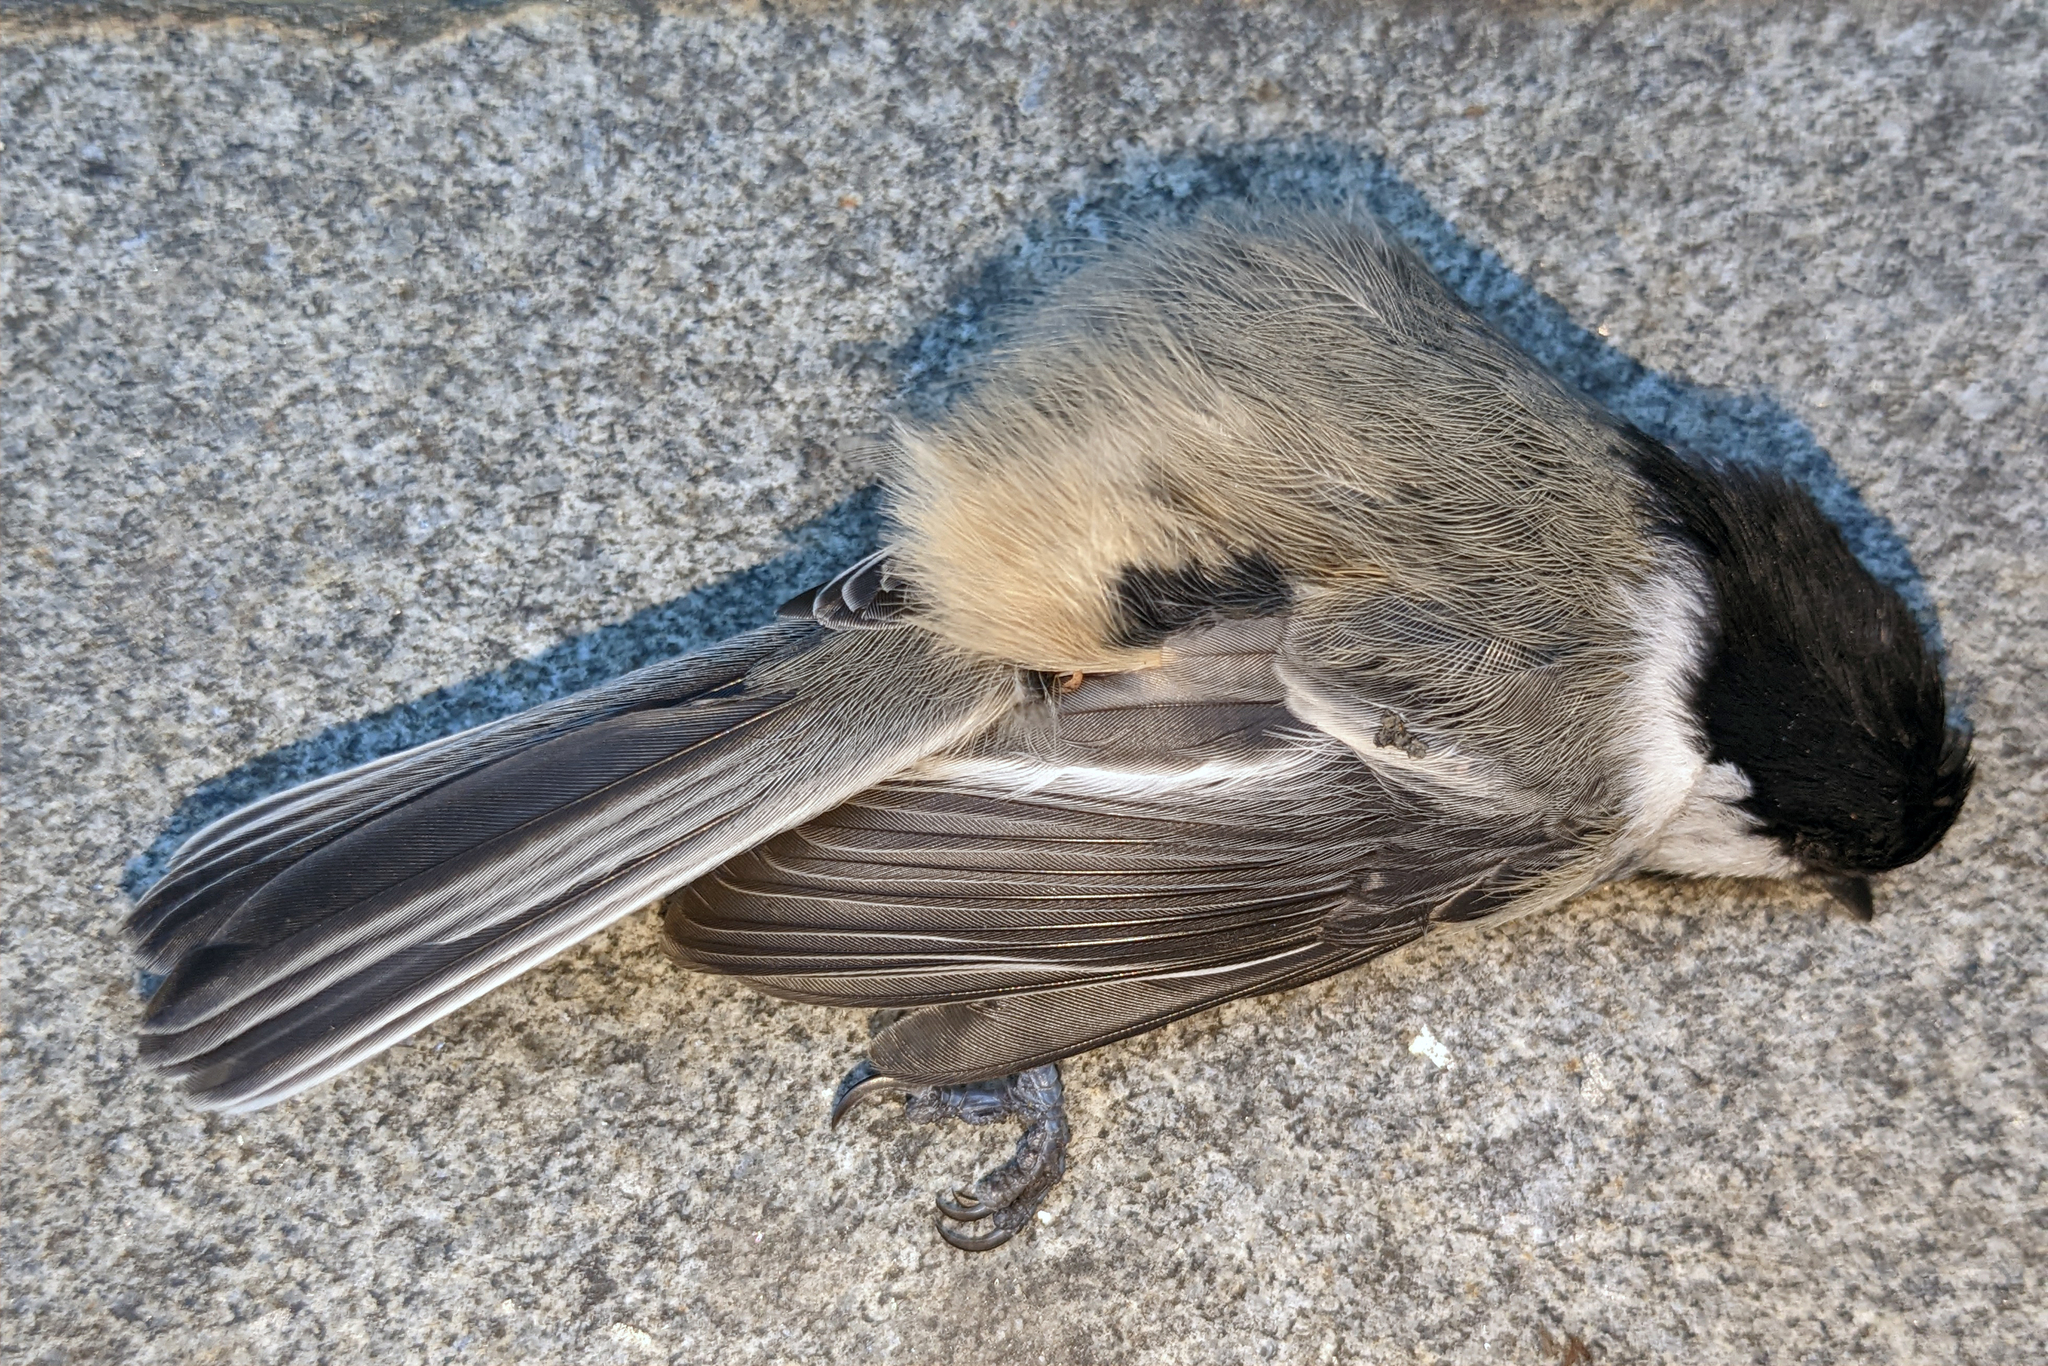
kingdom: Animalia
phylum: Chordata
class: Aves
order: Passeriformes
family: Paridae
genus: Poecile
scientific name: Poecile atricapillus
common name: Black-capped chickadee
